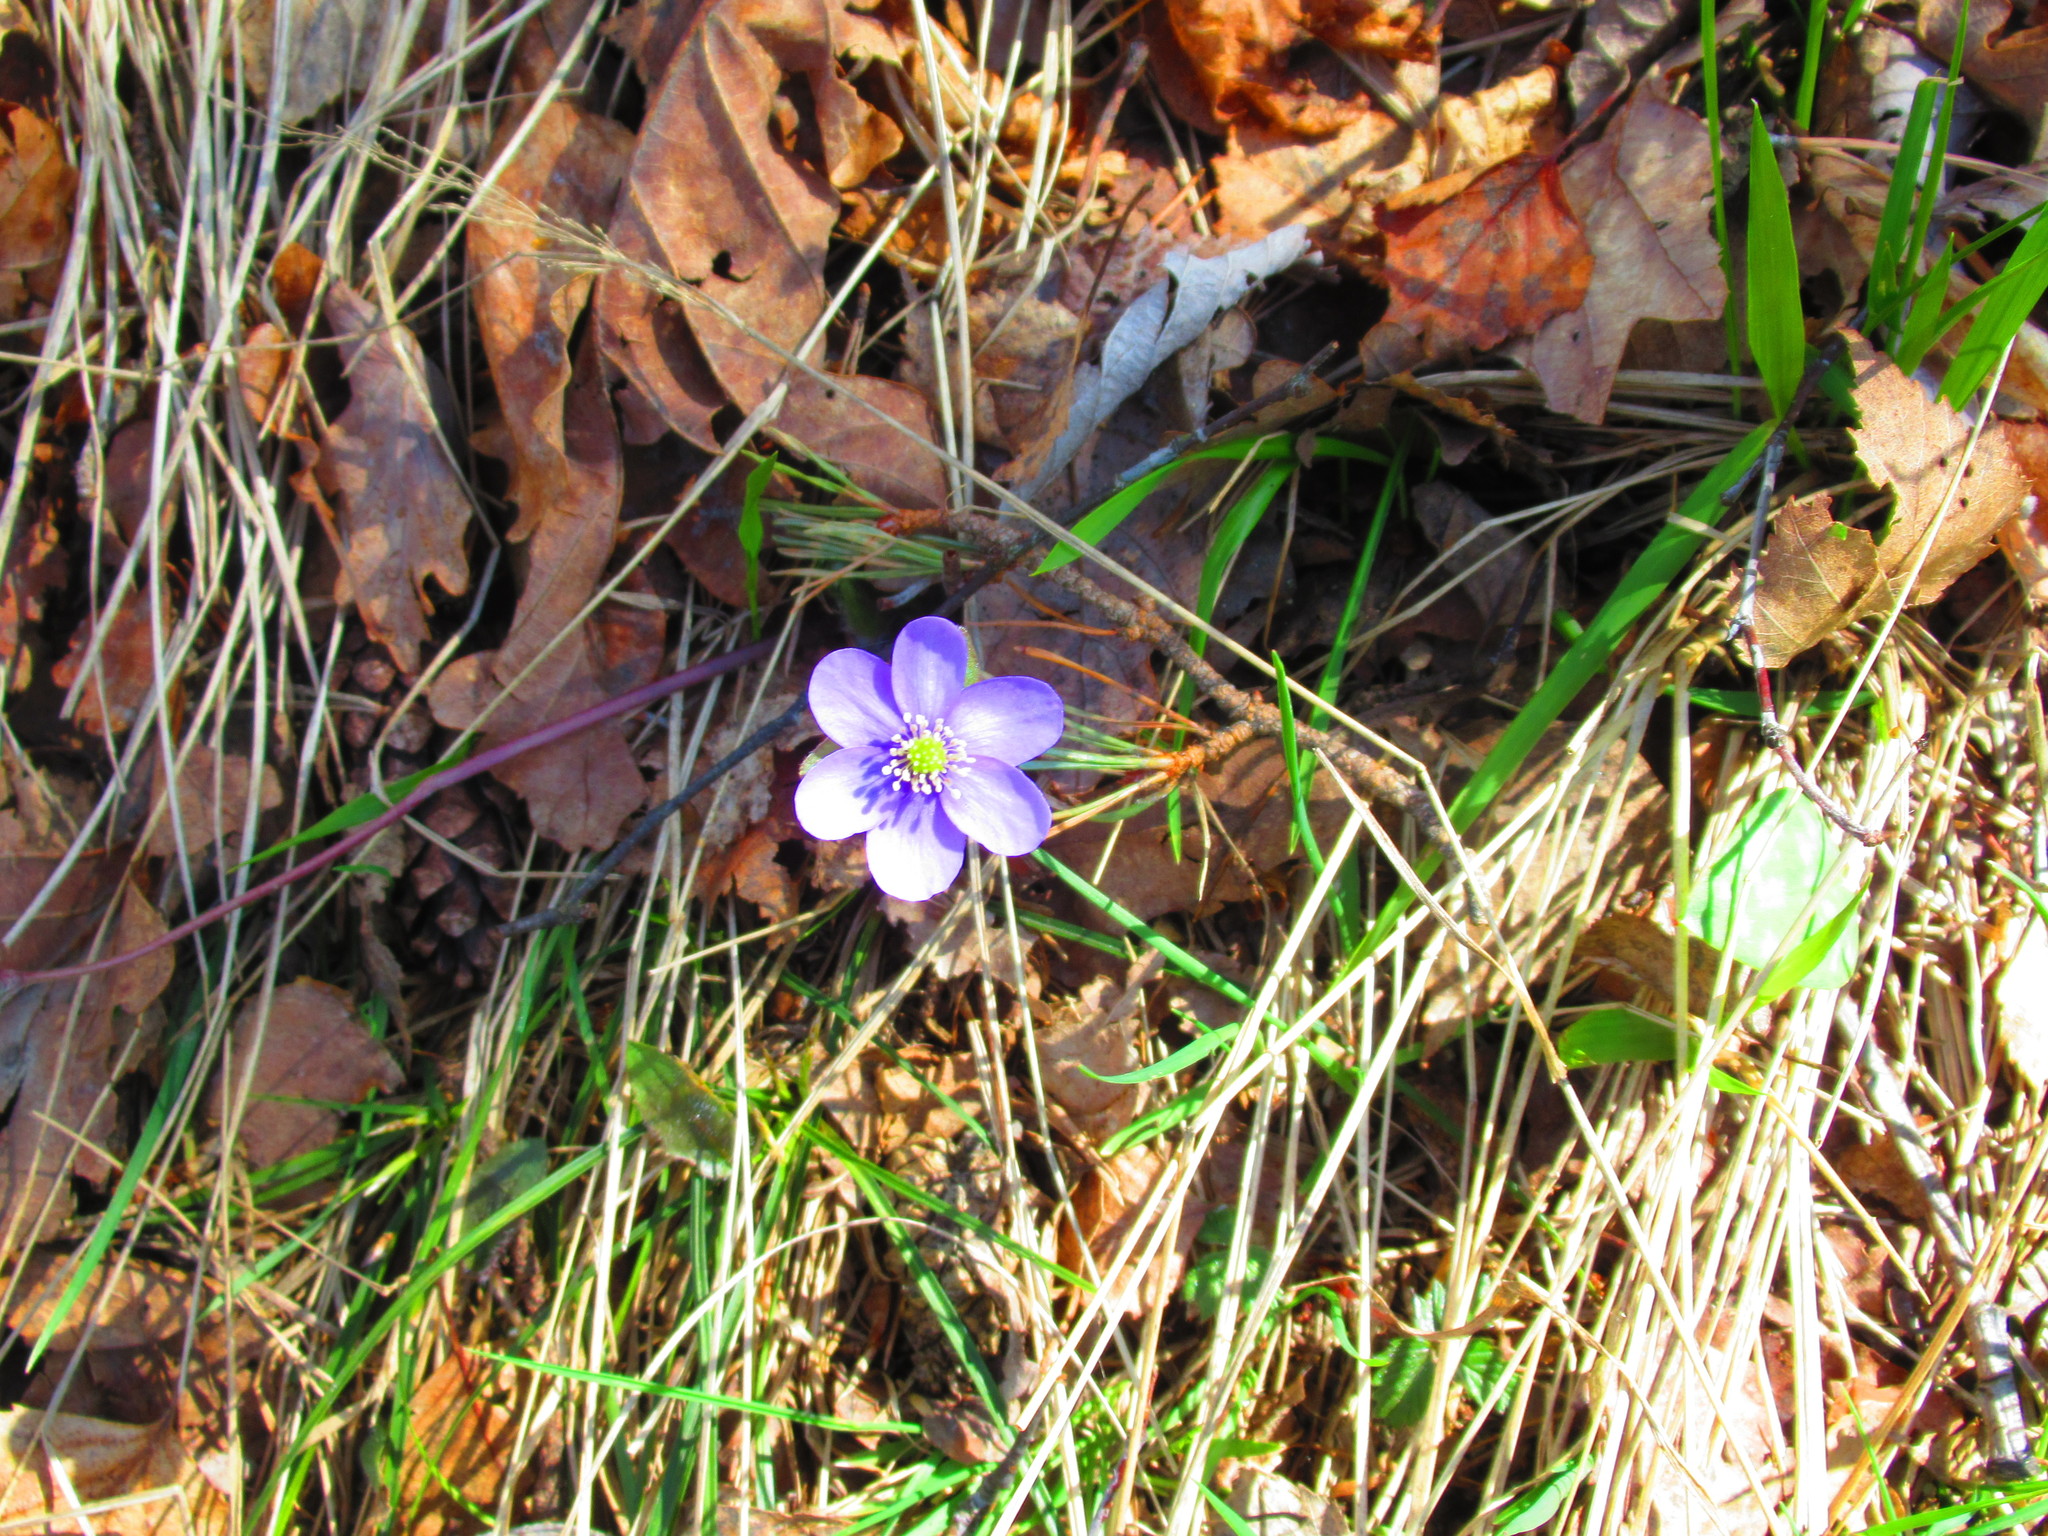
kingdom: Plantae
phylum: Tracheophyta
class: Magnoliopsida
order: Ranunculales
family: Ranunculaceae
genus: Hepatica
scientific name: Hepatica nobilis
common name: Liverleaf
